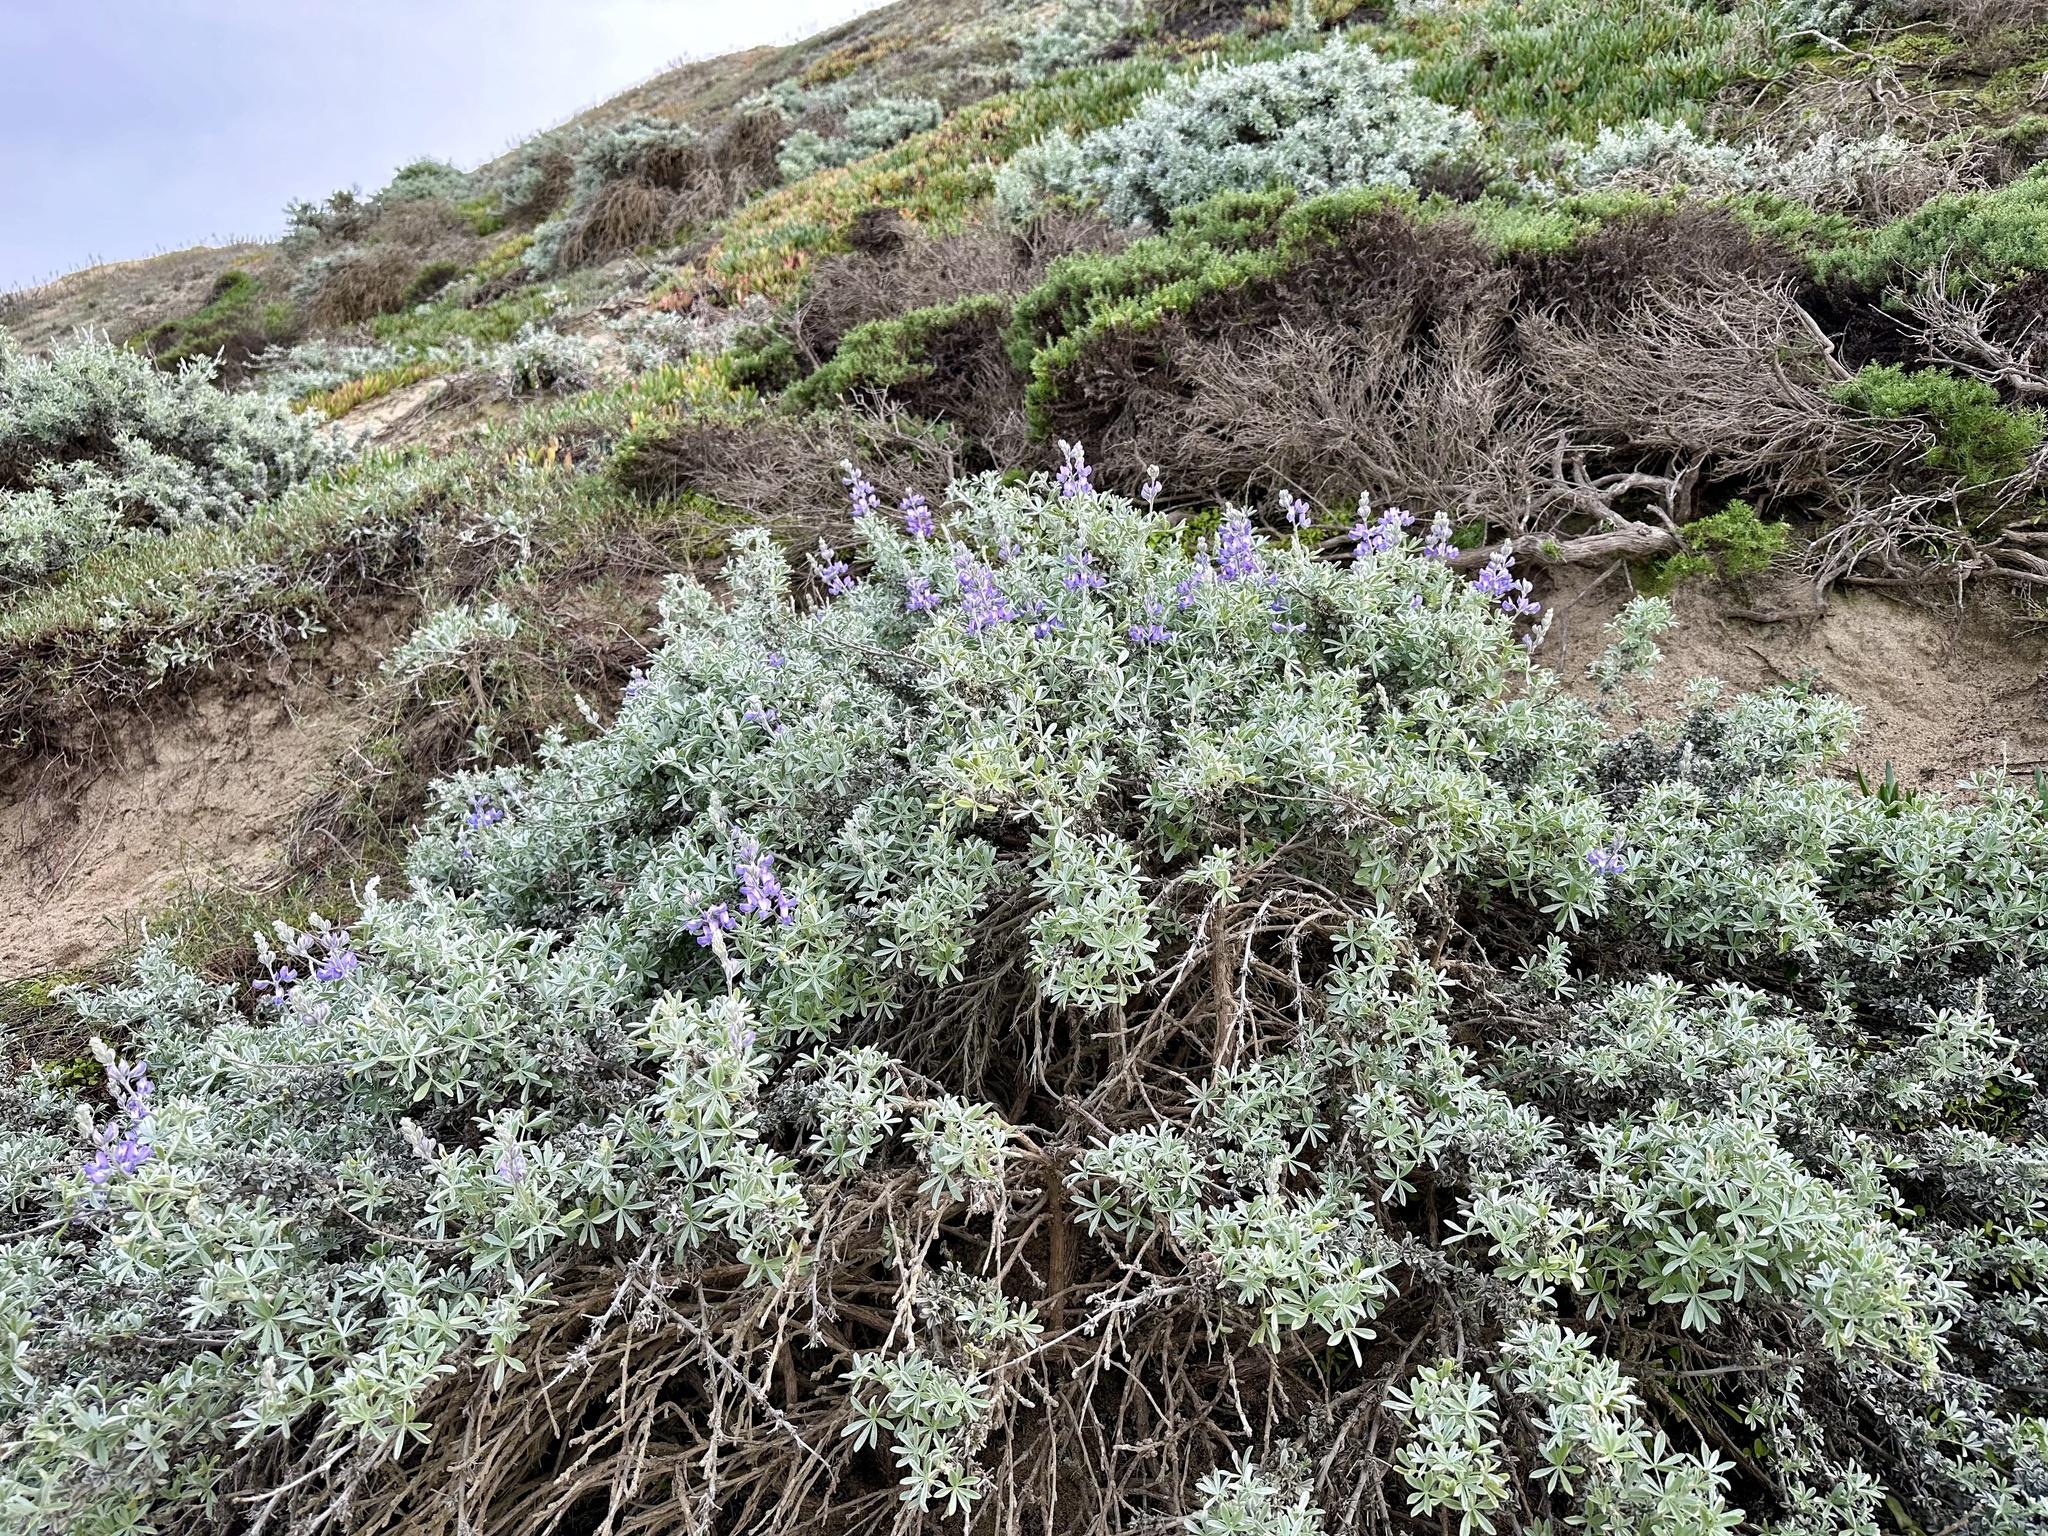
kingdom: Animalia
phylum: Arthropoda
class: Insecta
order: Diptera
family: Cecidomyiidae
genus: Dasineura
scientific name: Dasineura lupinorum
